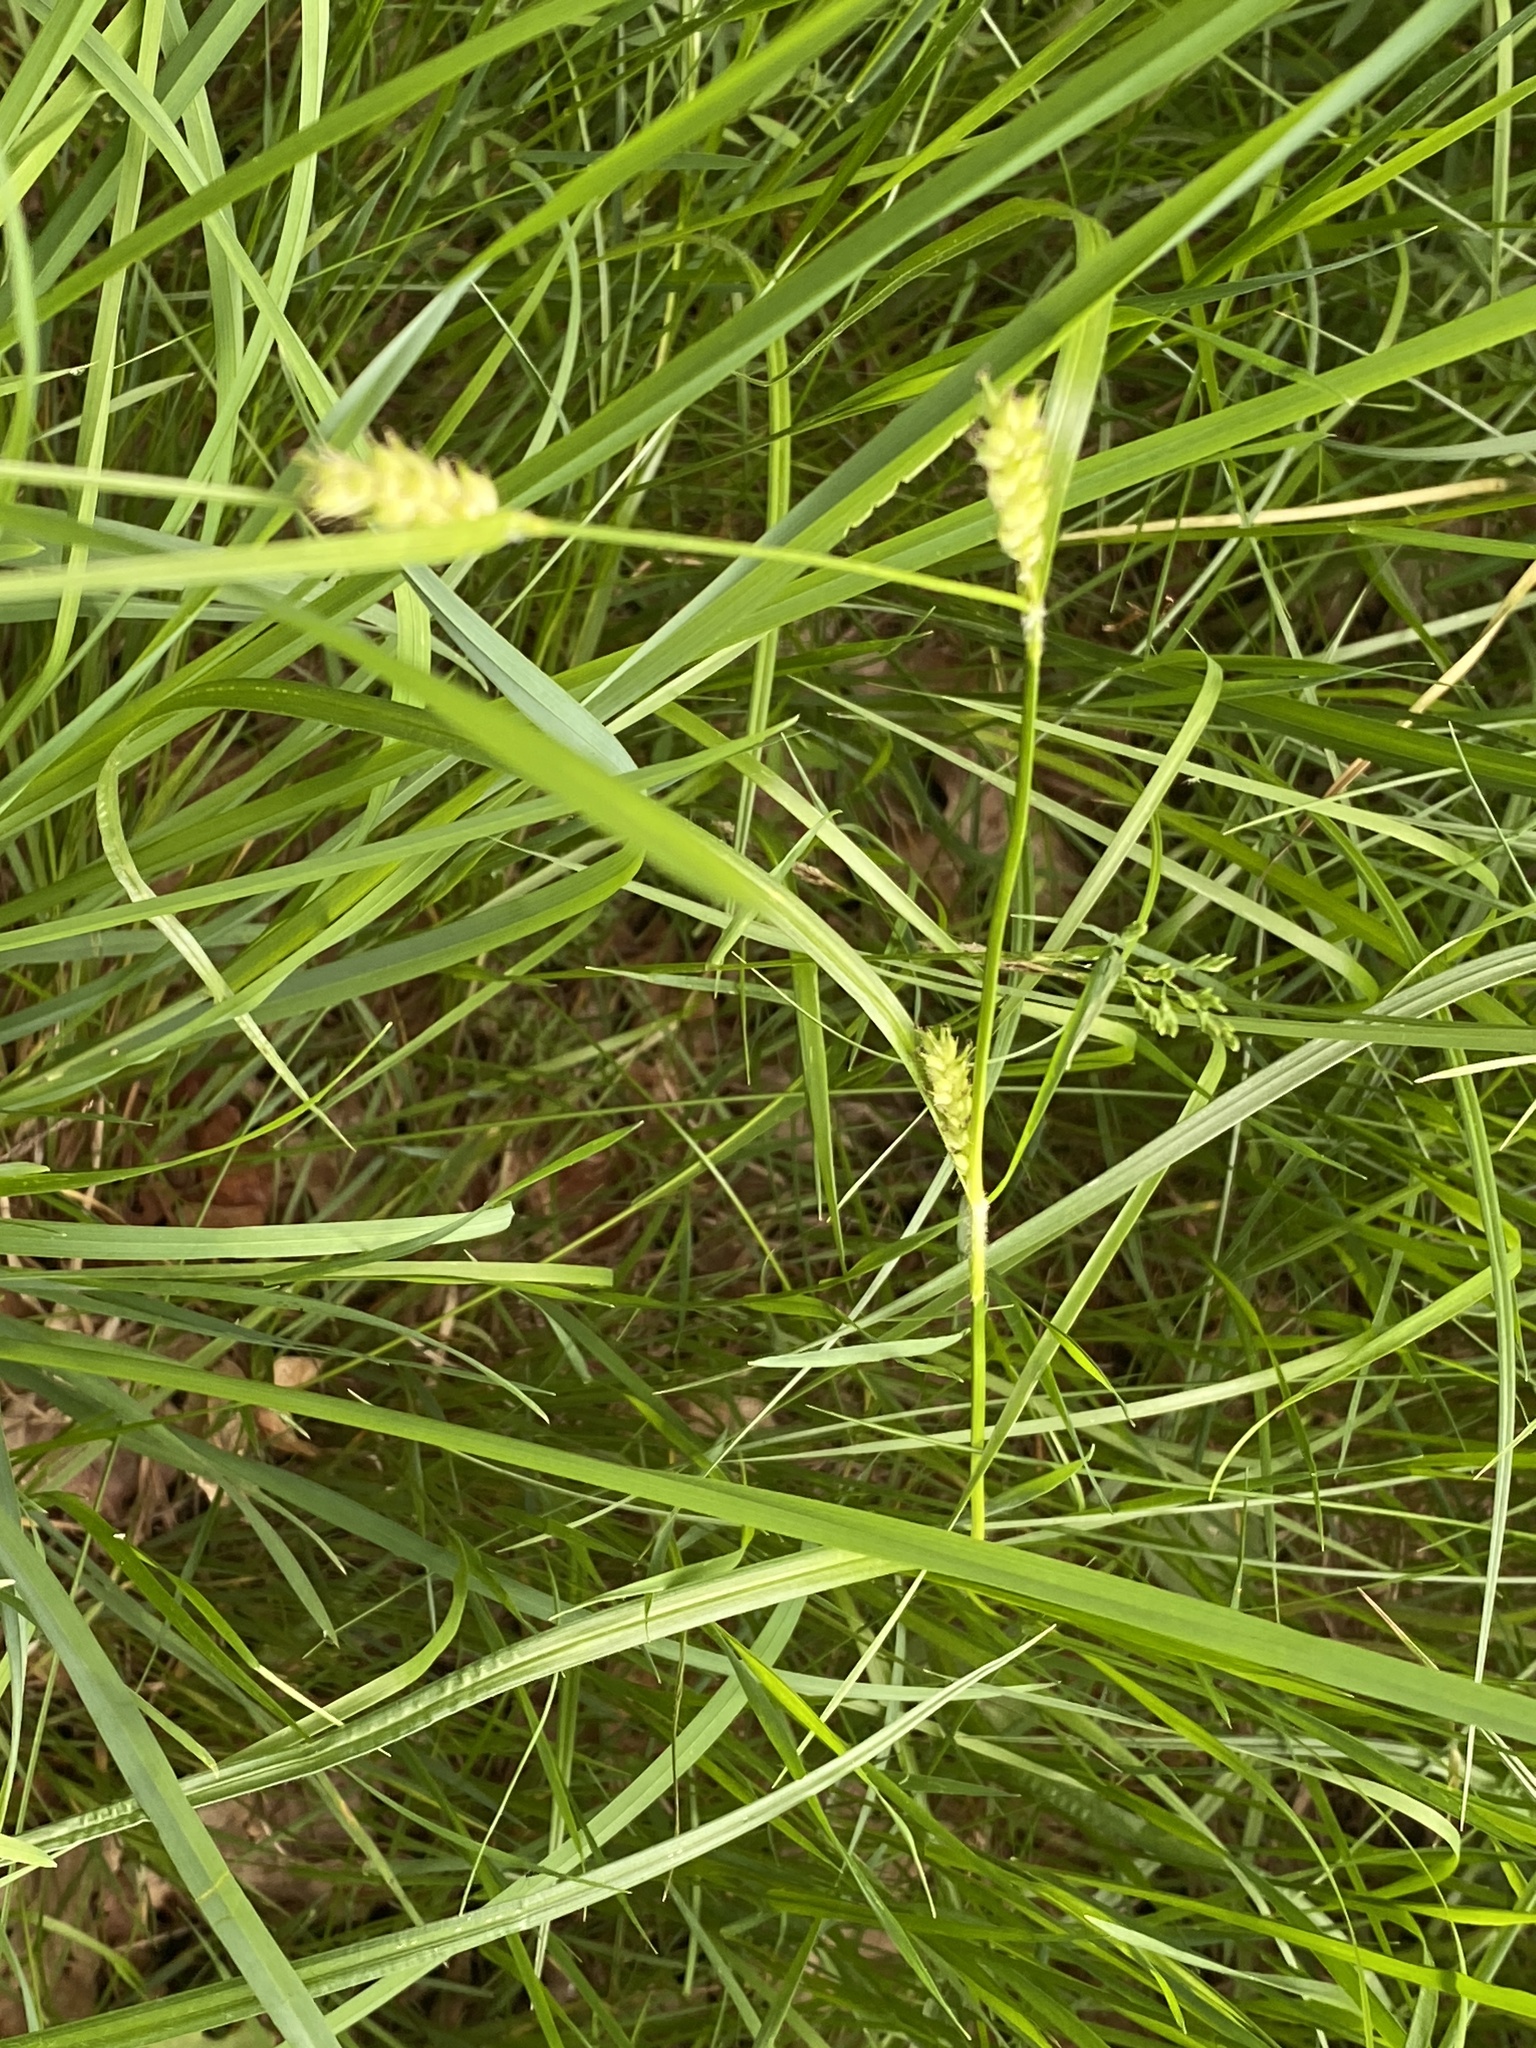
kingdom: Plantae
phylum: Tracheophyta
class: Liliopsida
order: Poales
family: Cyperaceae
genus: Carex
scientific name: Carex hirta
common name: Hairy sedge
